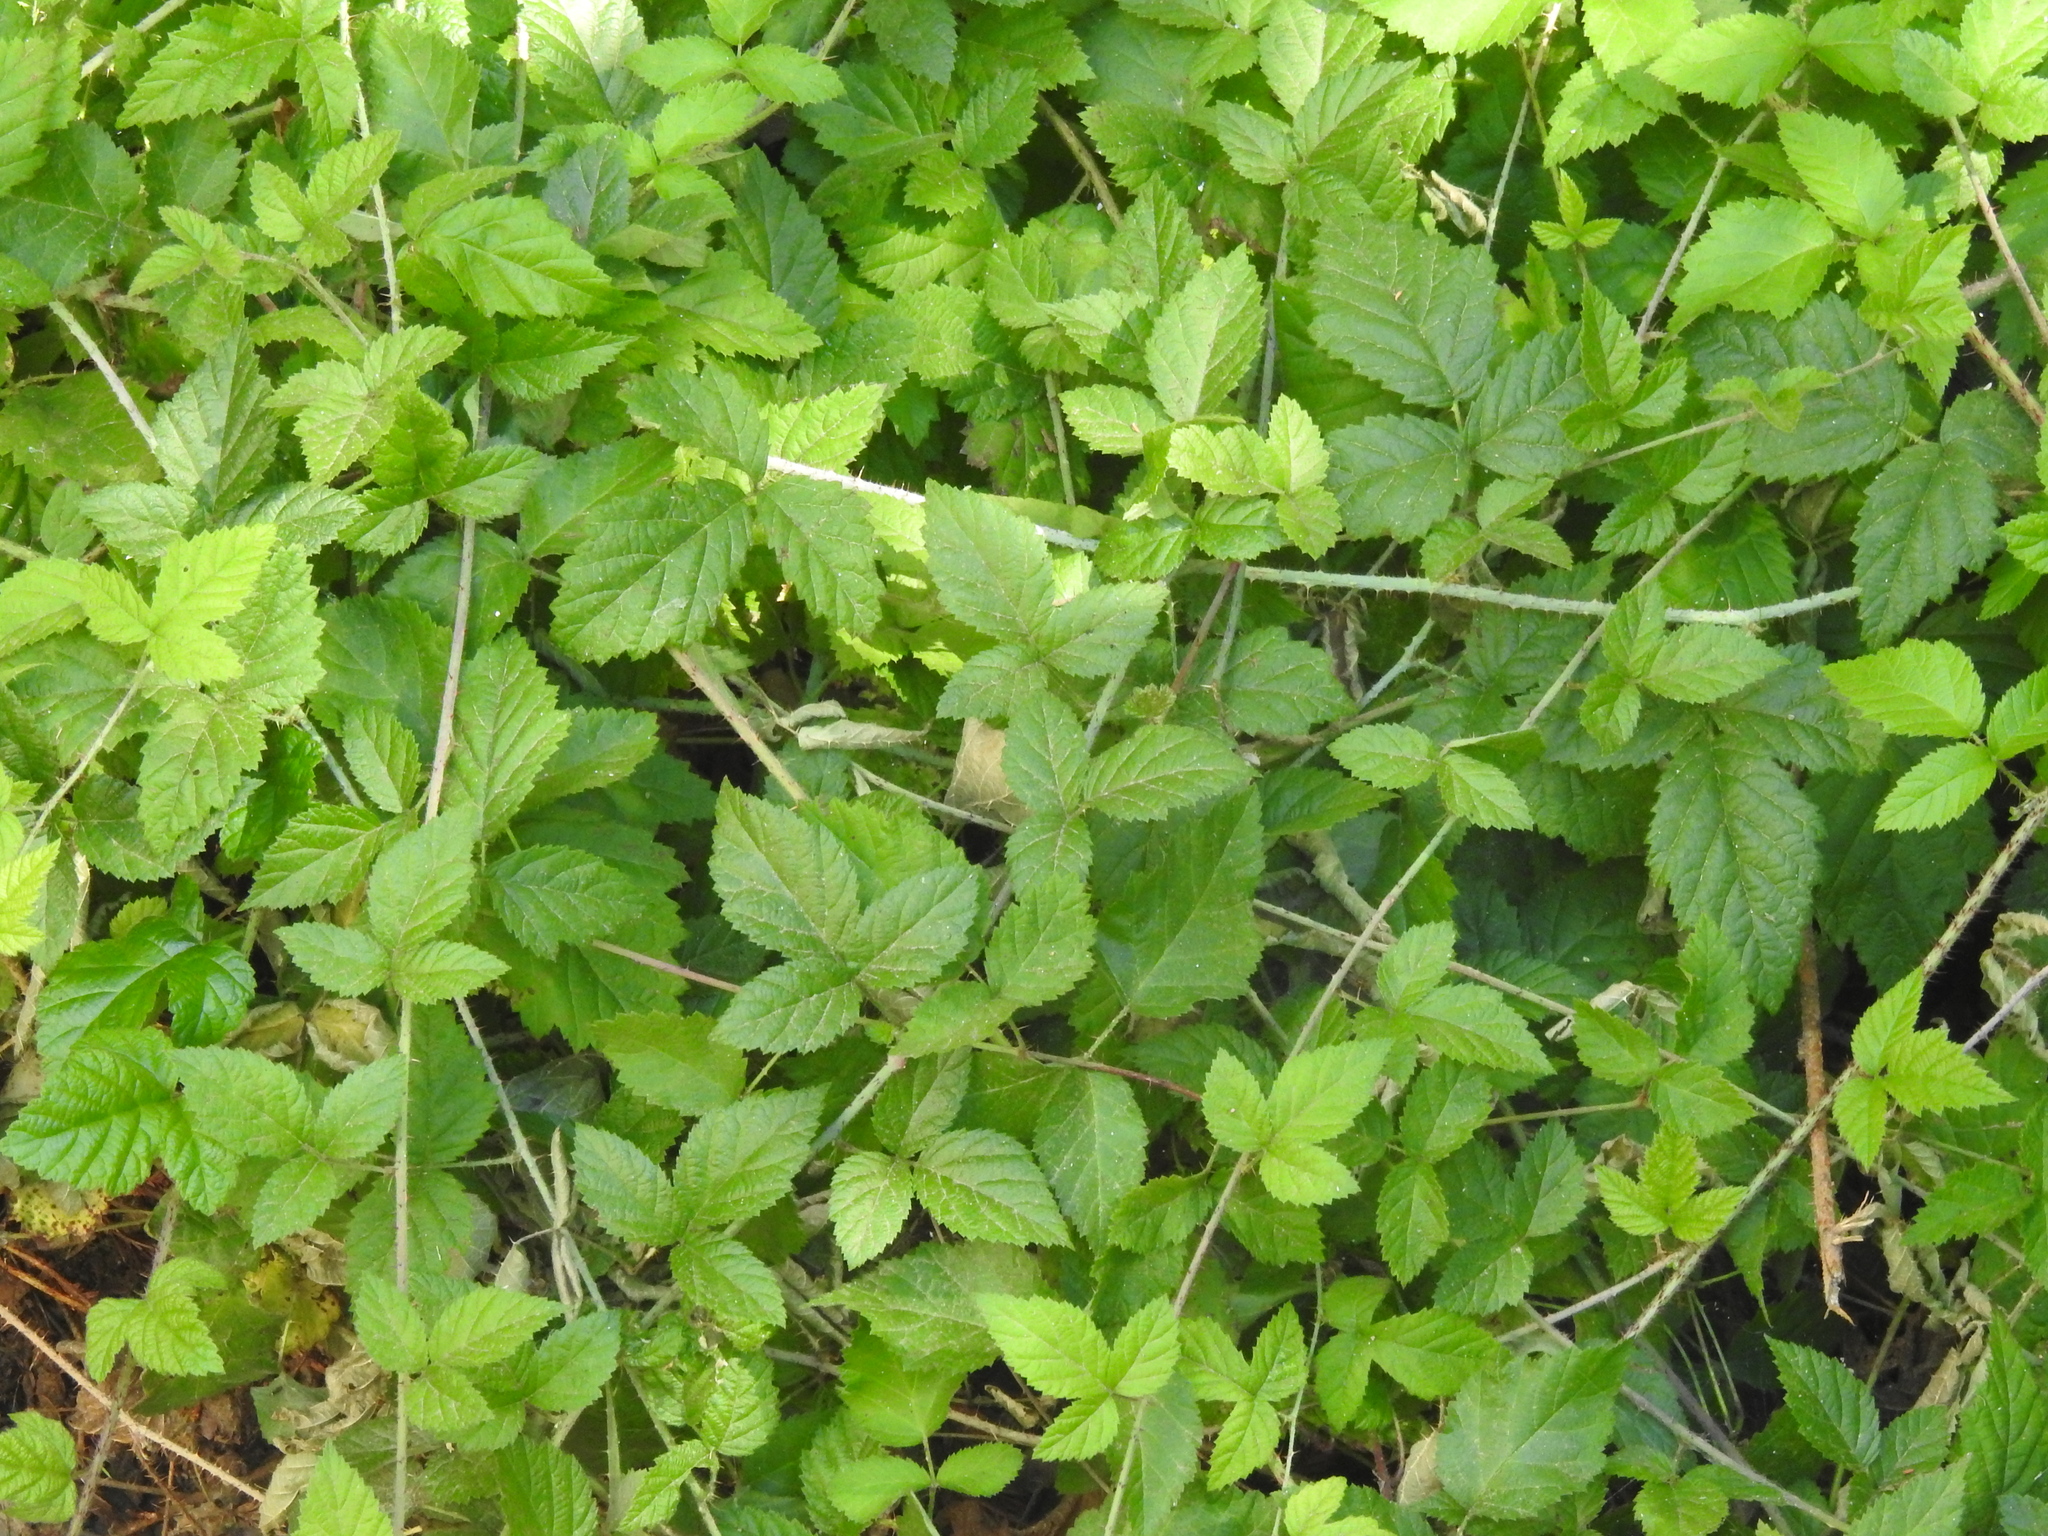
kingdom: Plantae
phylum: Tracheophyta
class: Magnoliopsida
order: Rosales
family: Rosaceae
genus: Rubus
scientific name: Rubus ursinus
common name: Pacific blackberry
